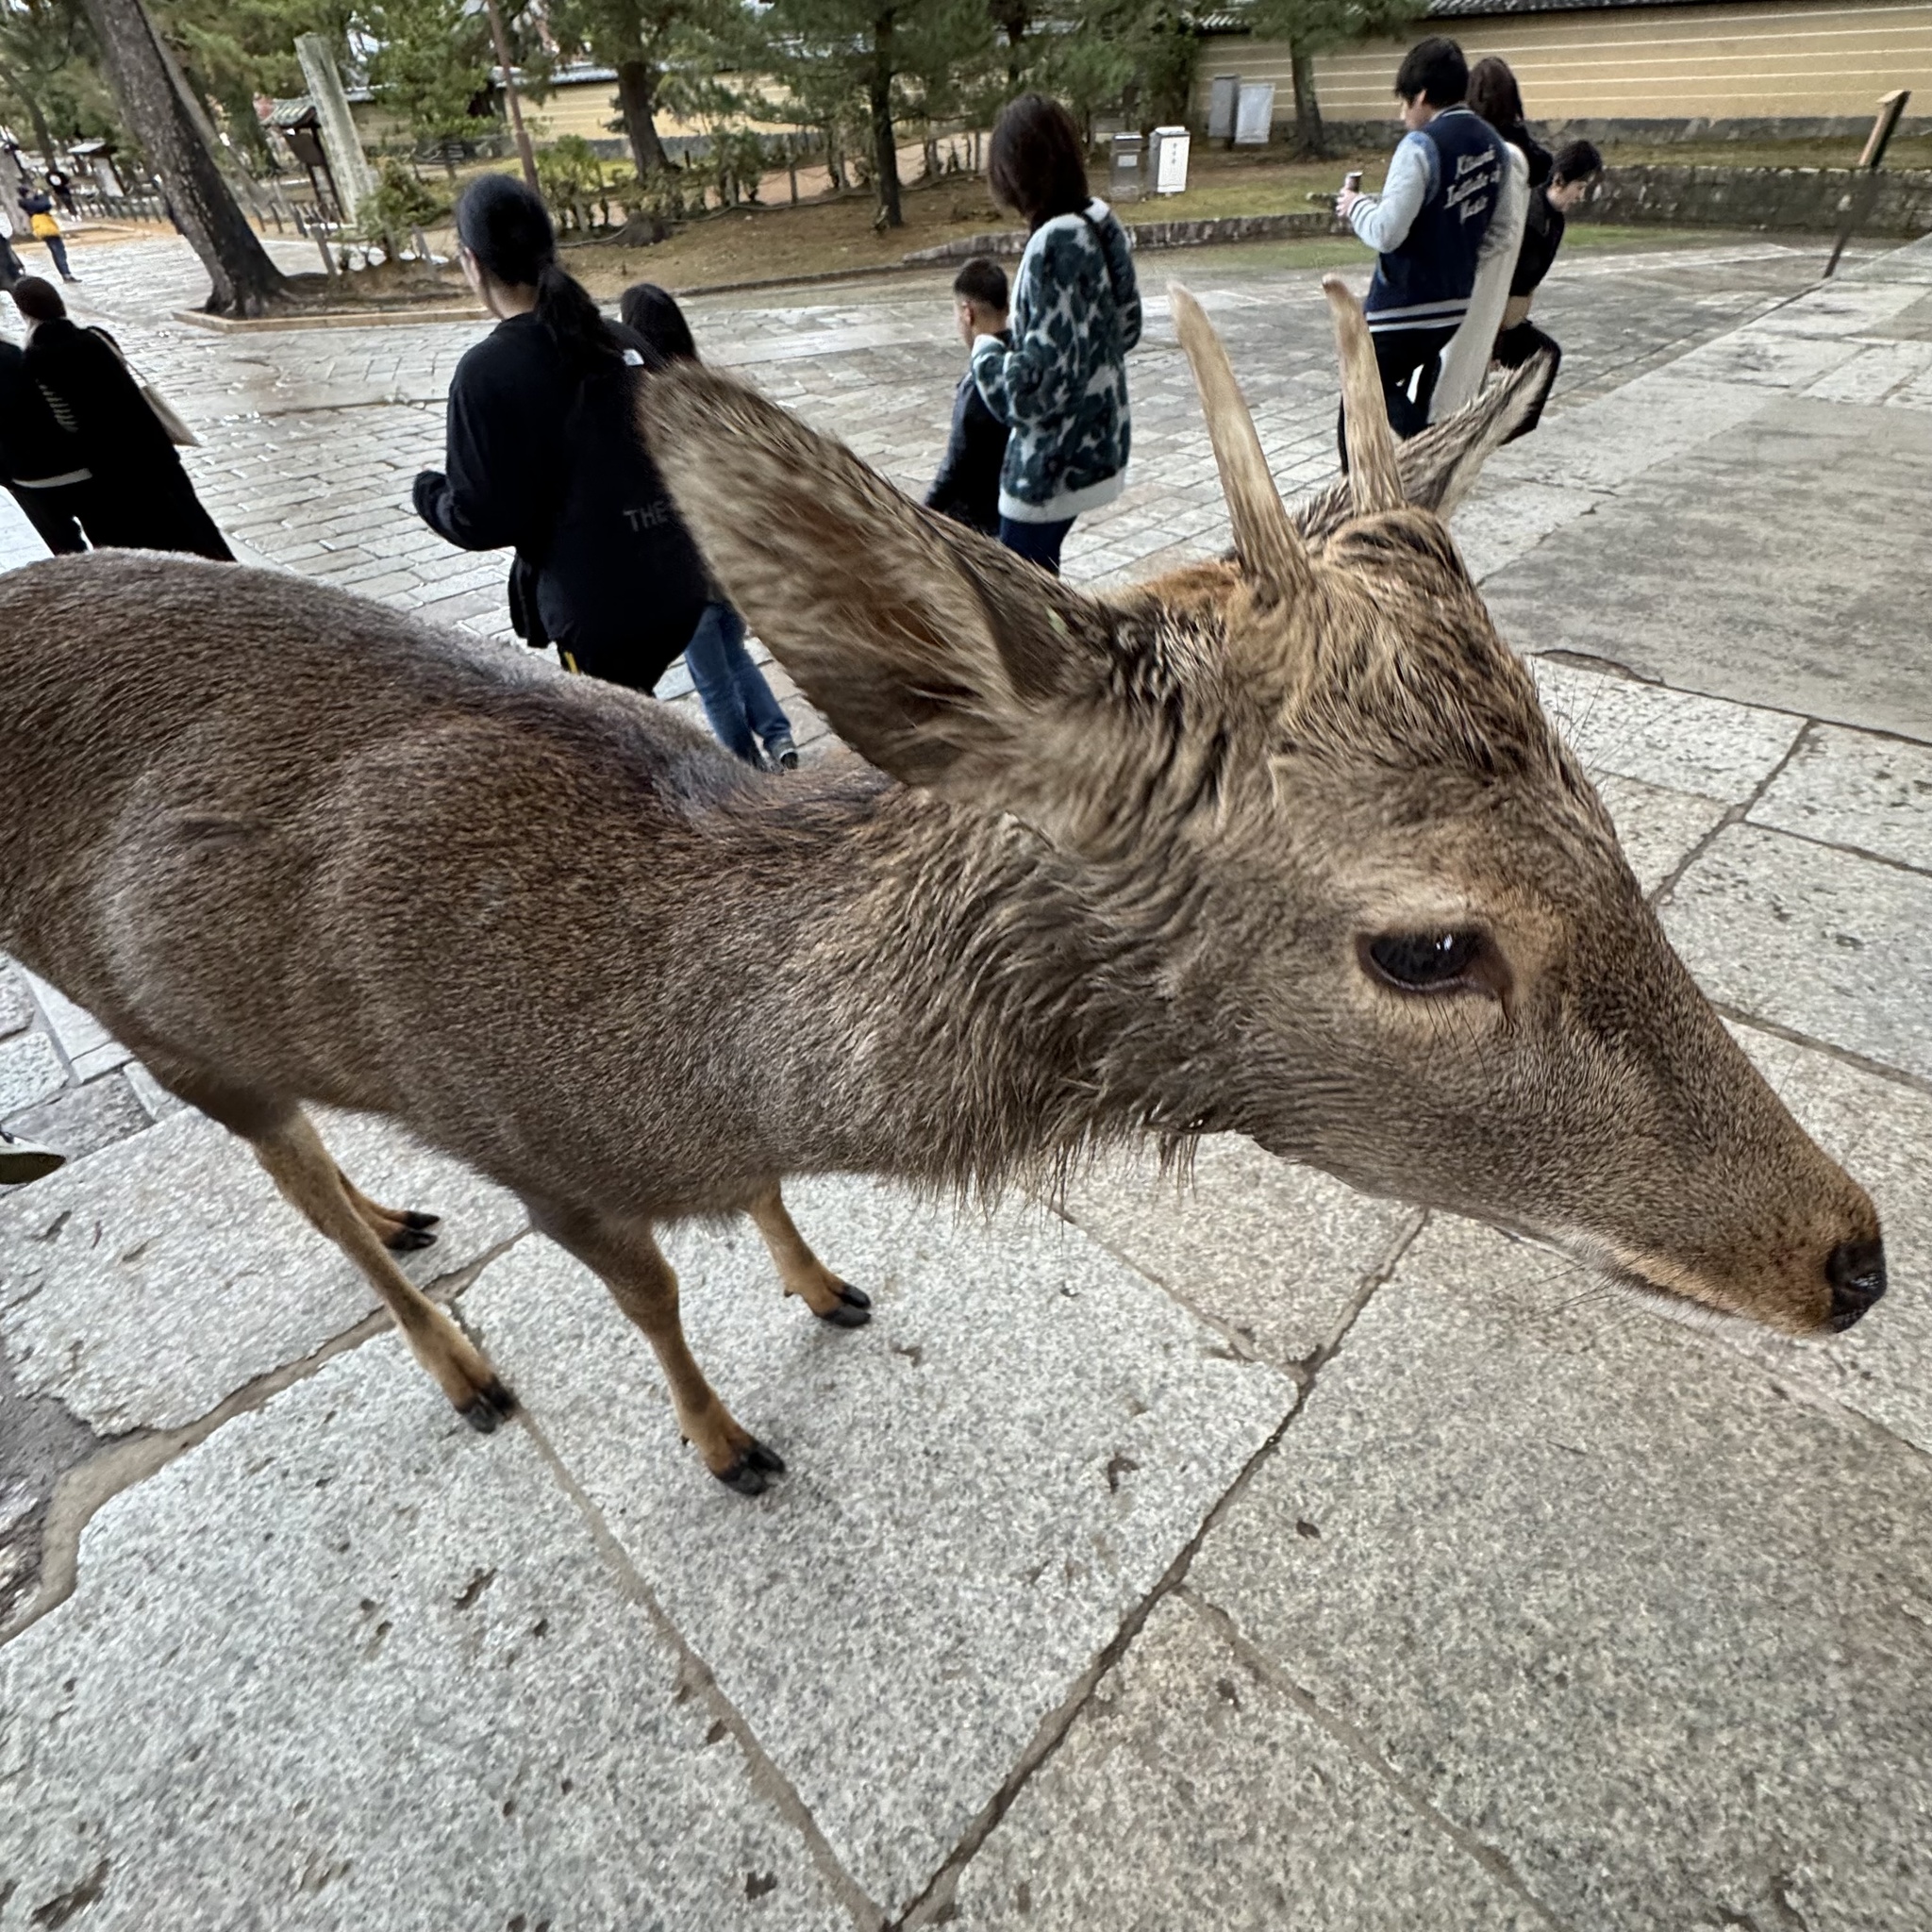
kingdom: Animalia
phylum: Chordata
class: Mammalia
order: Artiodactyla
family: Cervidae
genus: Cervus
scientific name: Cervus nippon
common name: Sika deer
